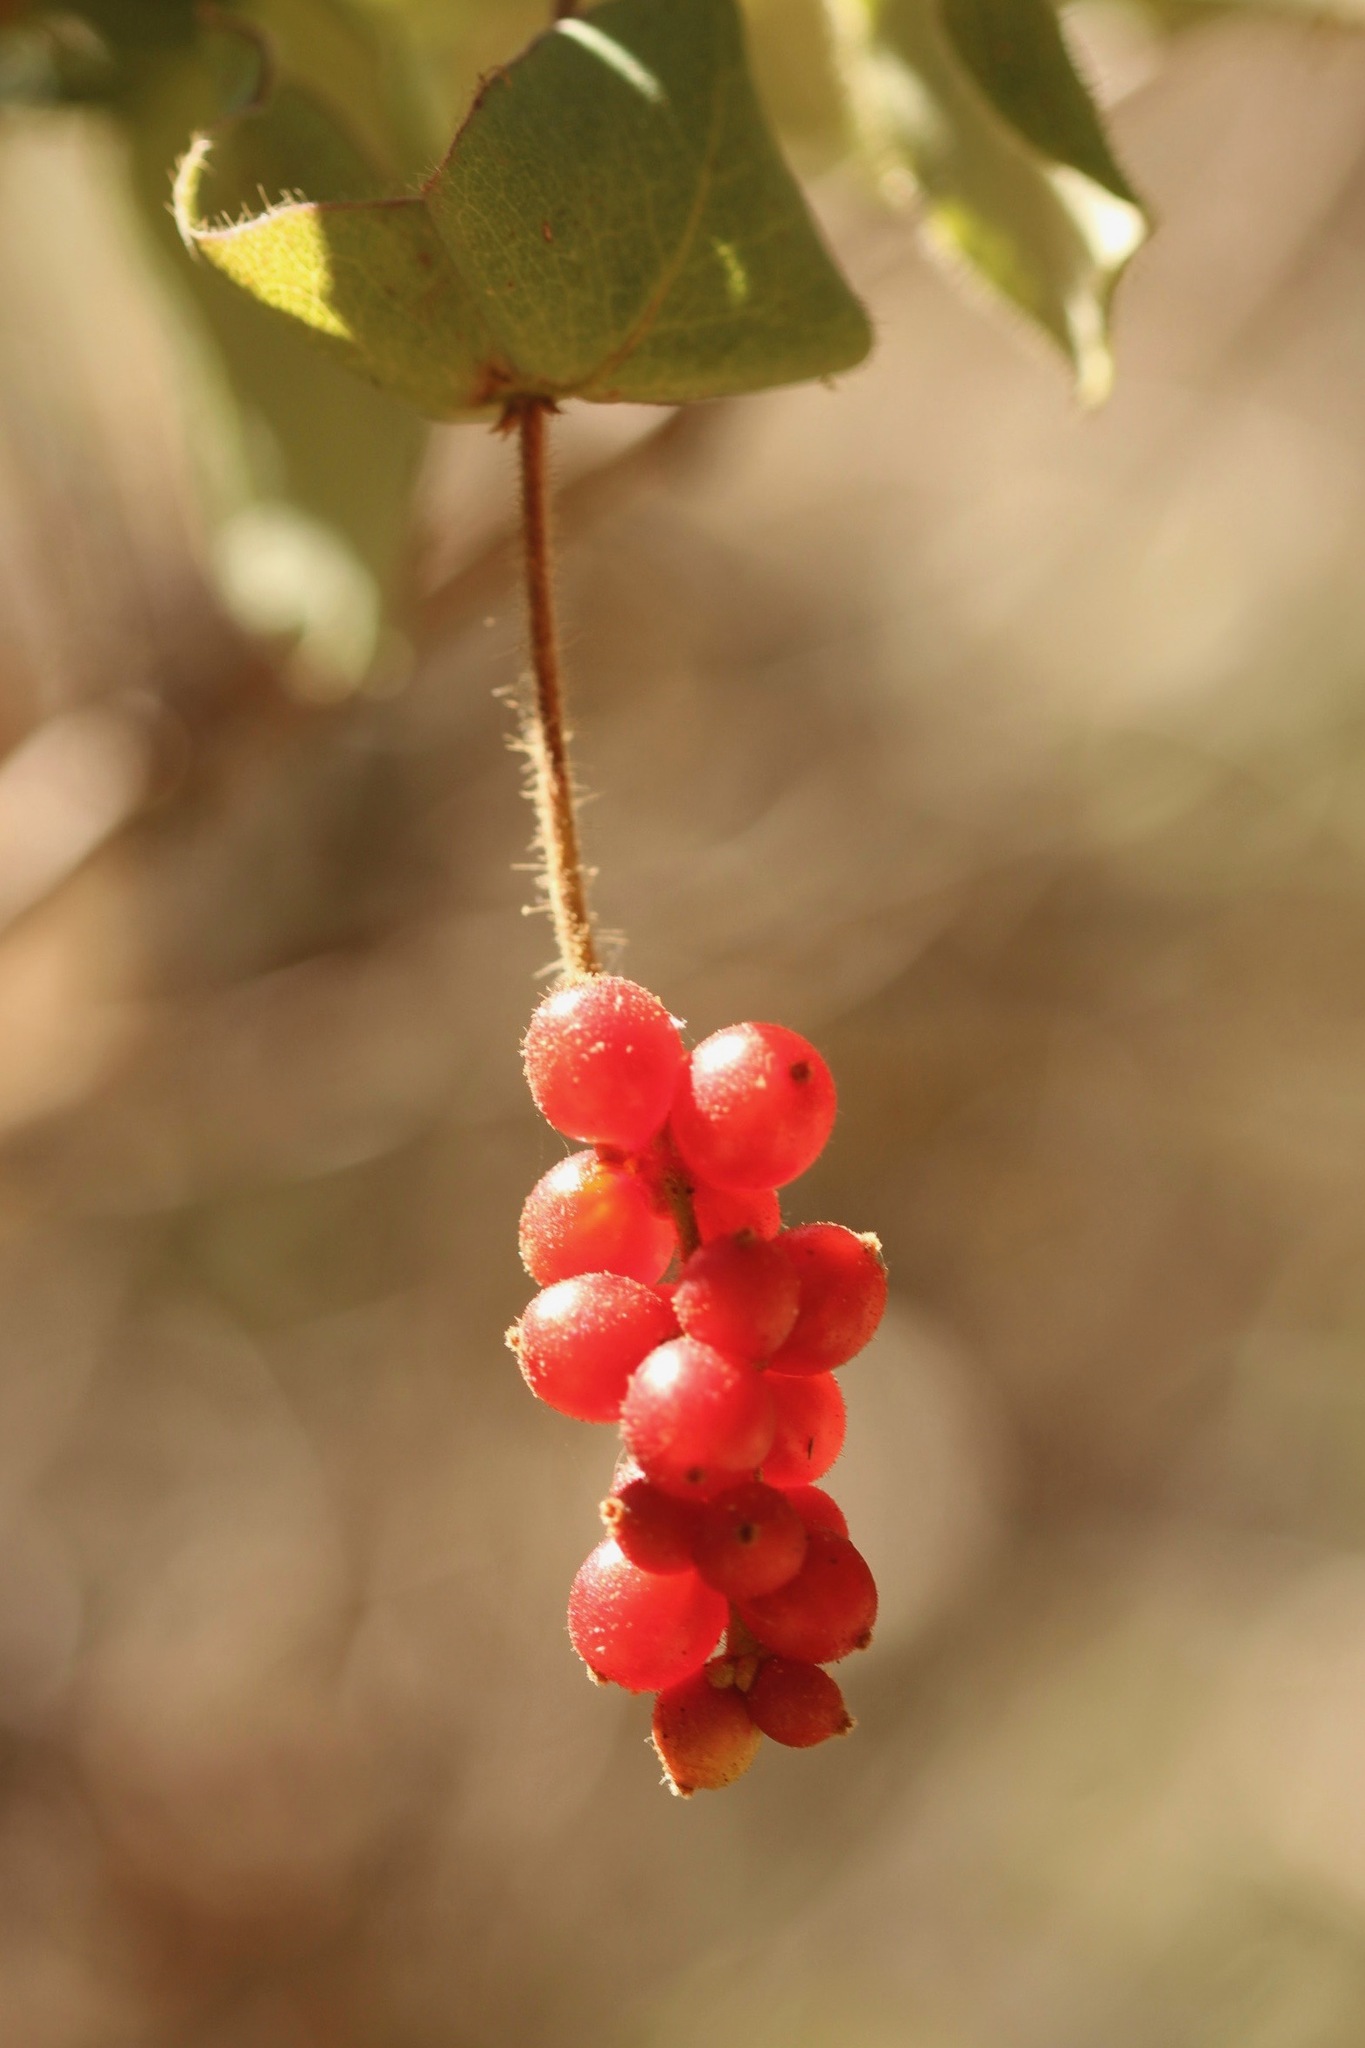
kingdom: Plantae
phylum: Tracheophyta
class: Magnoliopsida
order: Dipsacales
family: Caprifoliaceae
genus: Lonicera
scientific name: Lonicera hispidula
